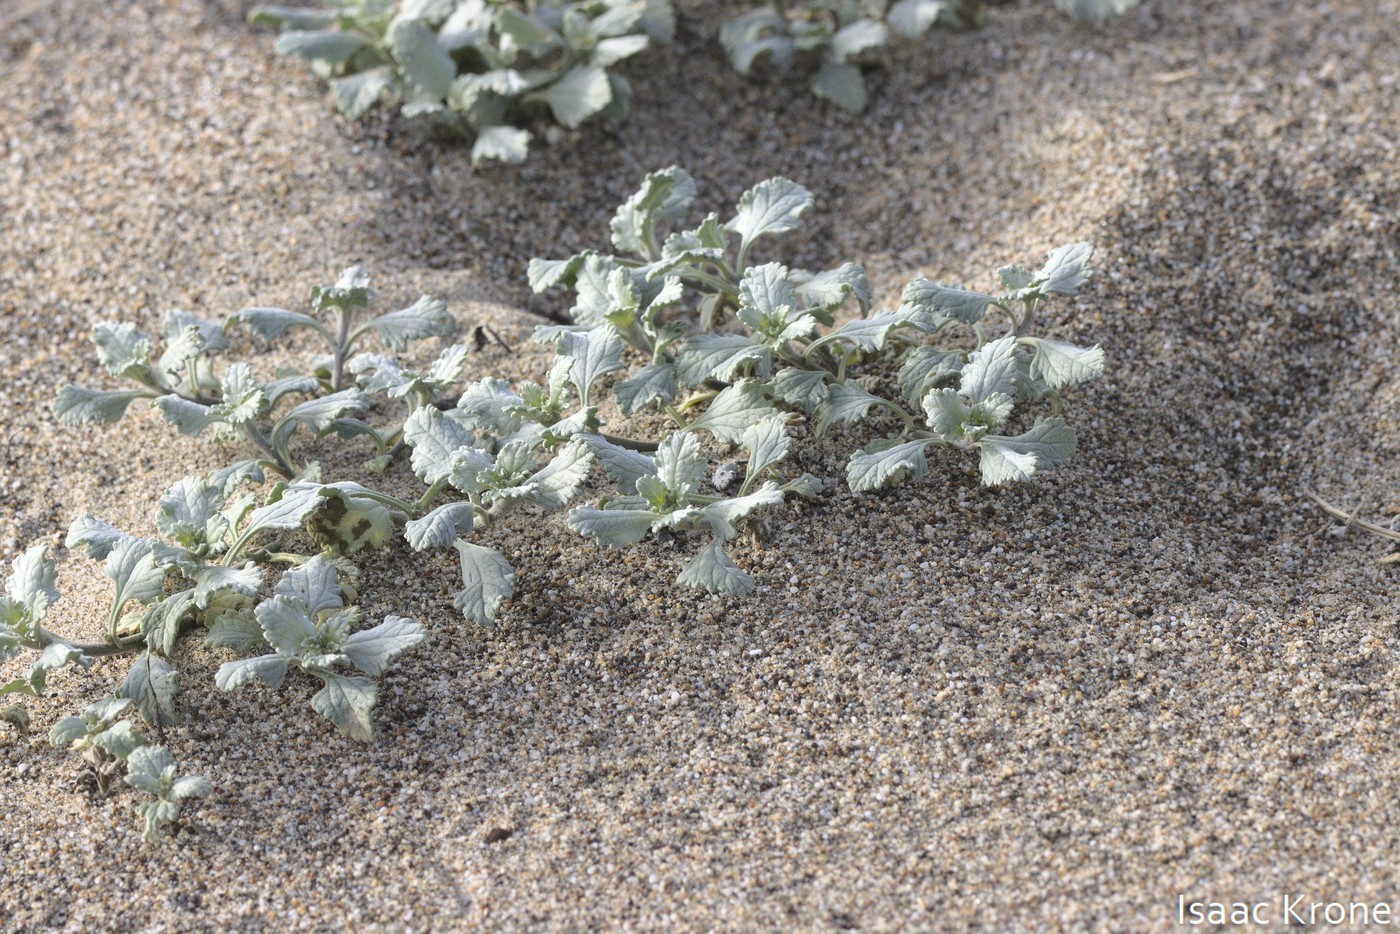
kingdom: Plantae
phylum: Tracheophyta
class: Magnoliopsida
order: Asterales
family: Asteraceae
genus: Ambrosia
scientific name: Ambrosia chamissonis
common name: Beachbur
